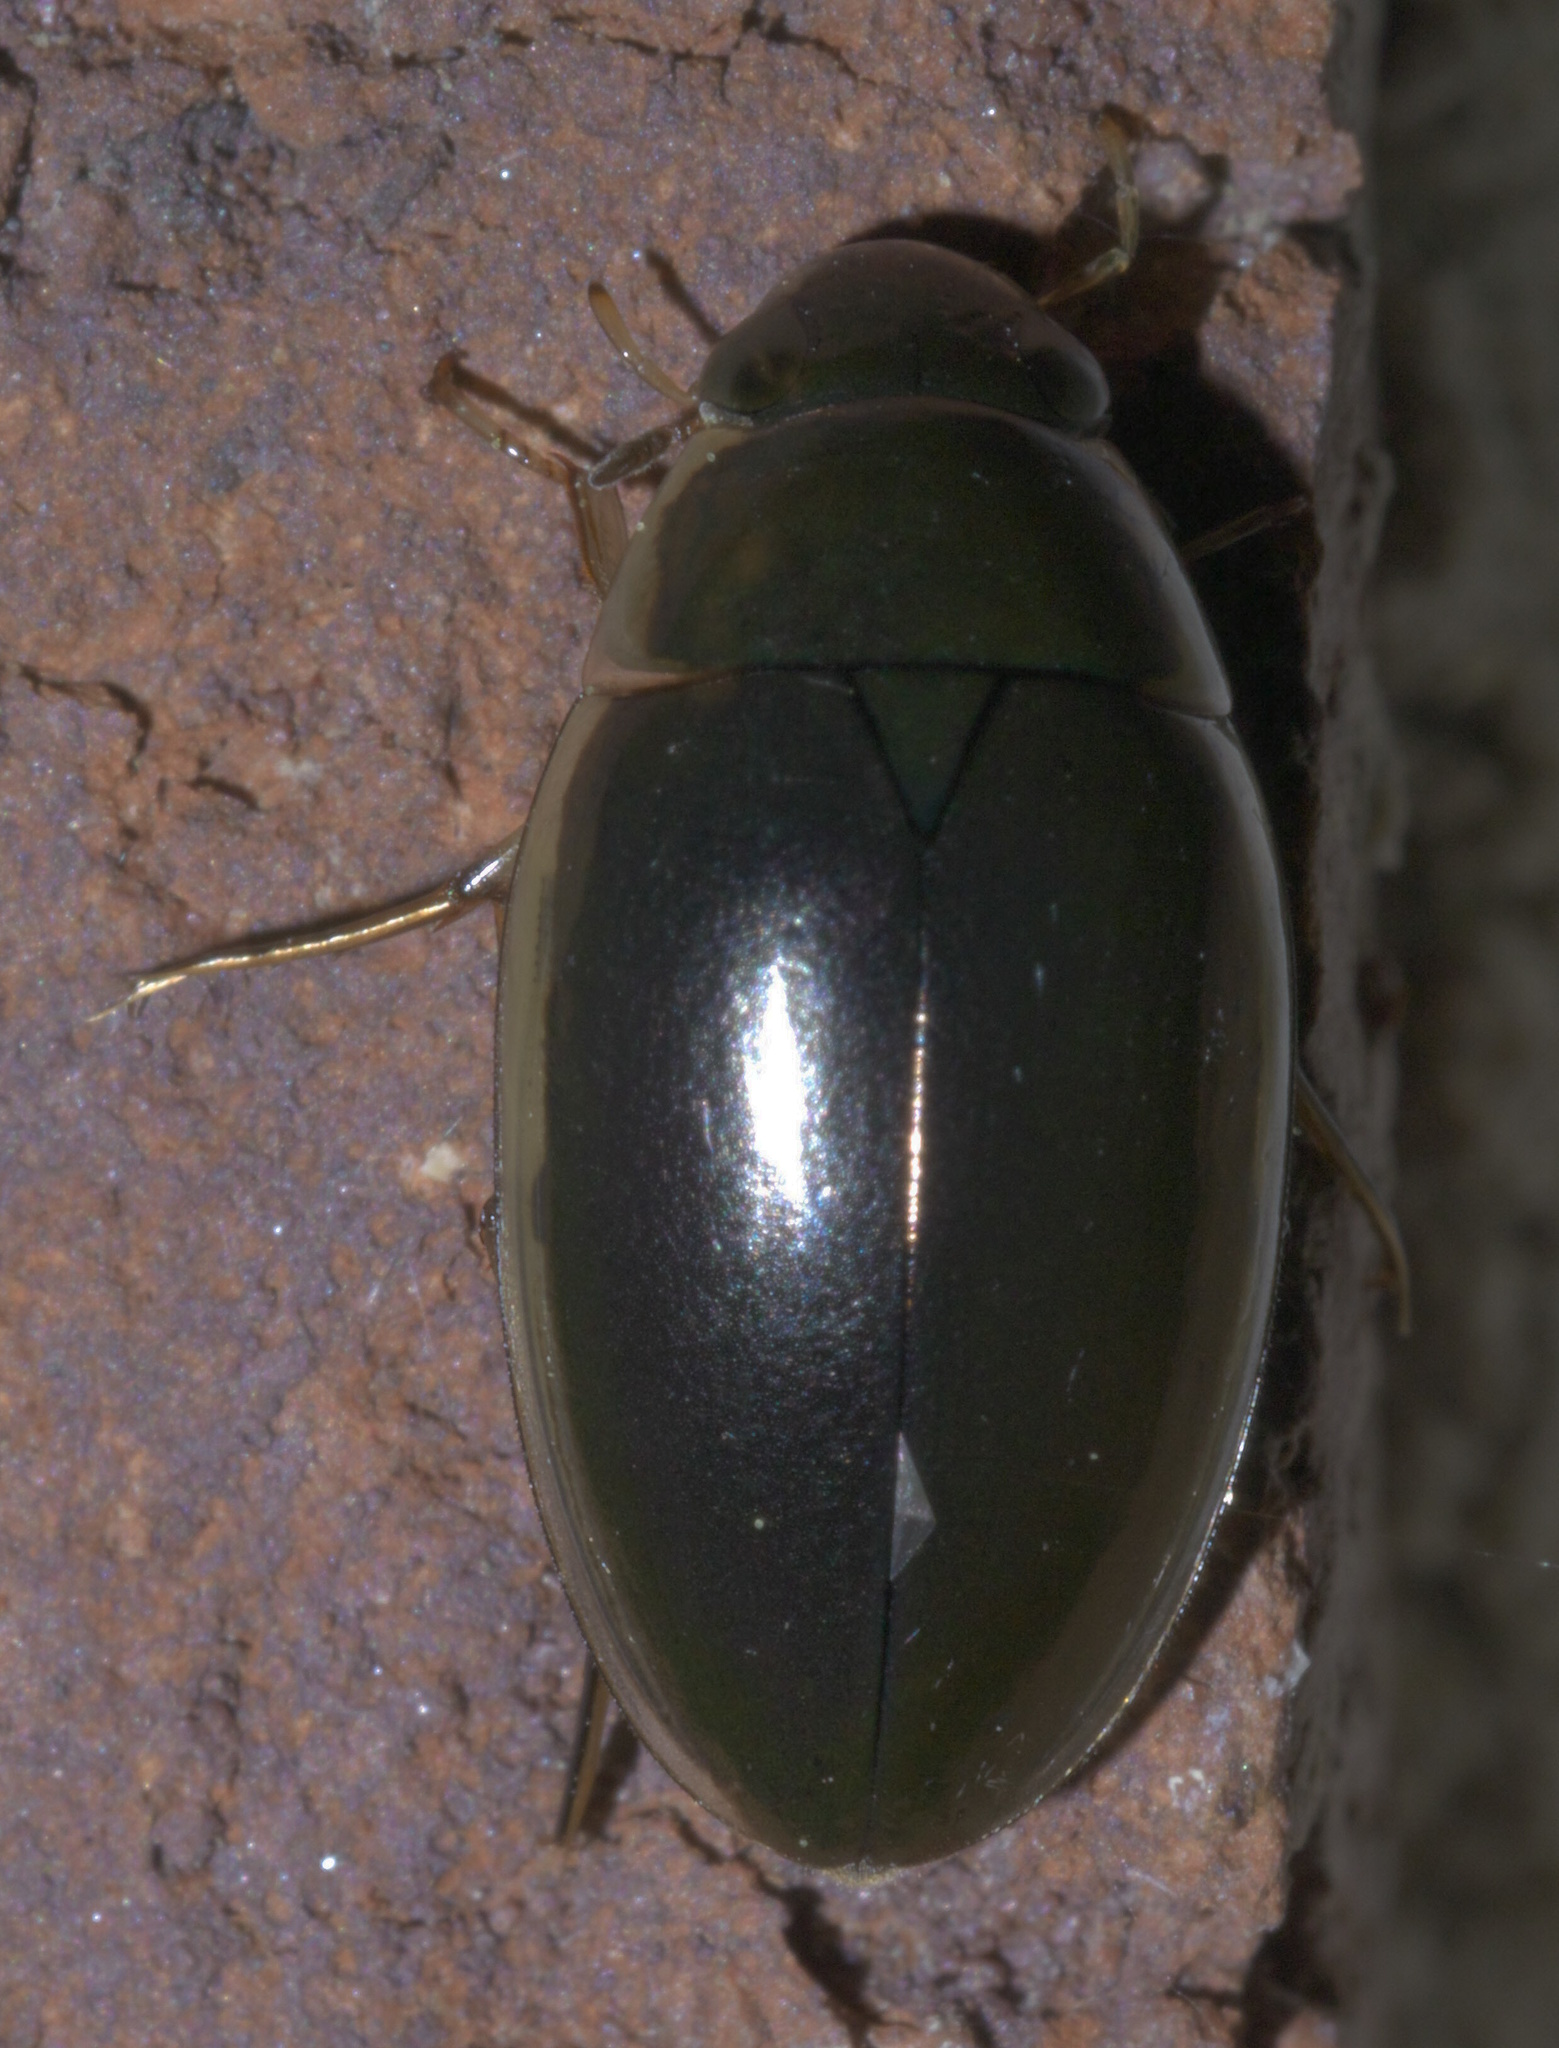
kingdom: Animalia
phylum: Arthropoda
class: Insecta
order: Coleoptera
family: Hydrophilidae
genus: Tropisternus
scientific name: Tropisternus lateralis
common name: Lateral-banded water scavenger beetle
